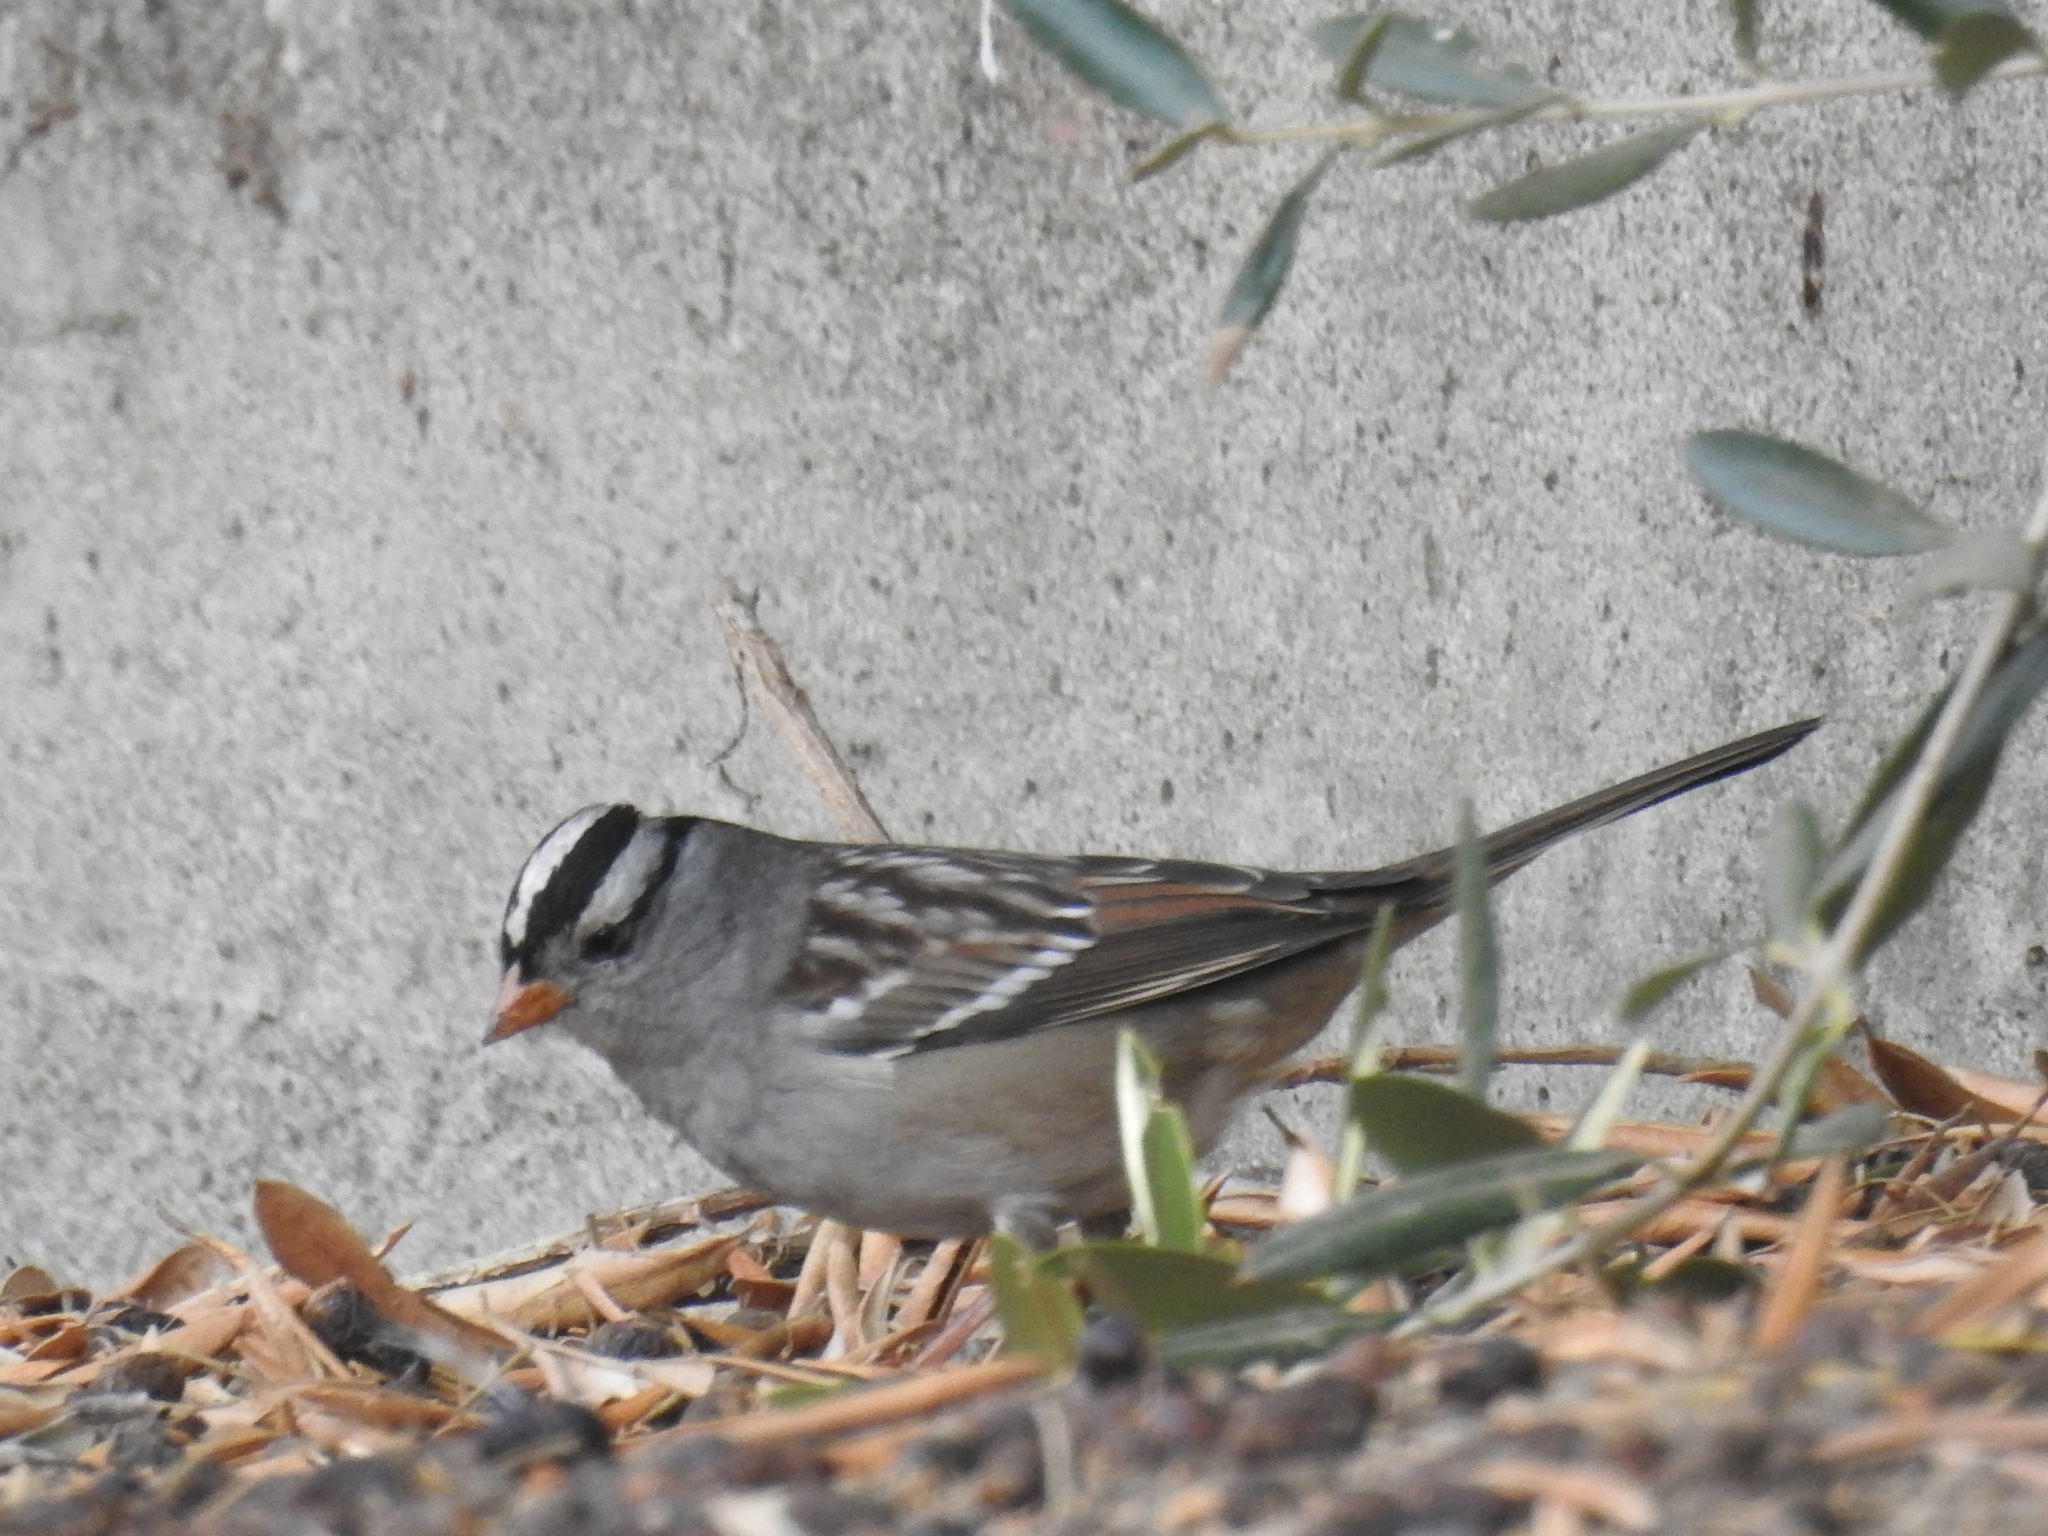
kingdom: Animalia
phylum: Chordata
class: Aves
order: Passeriformes
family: Passerellidae
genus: Zonotrichia
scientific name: Zonotrichia leucophrys
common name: White-crowned sparrow
